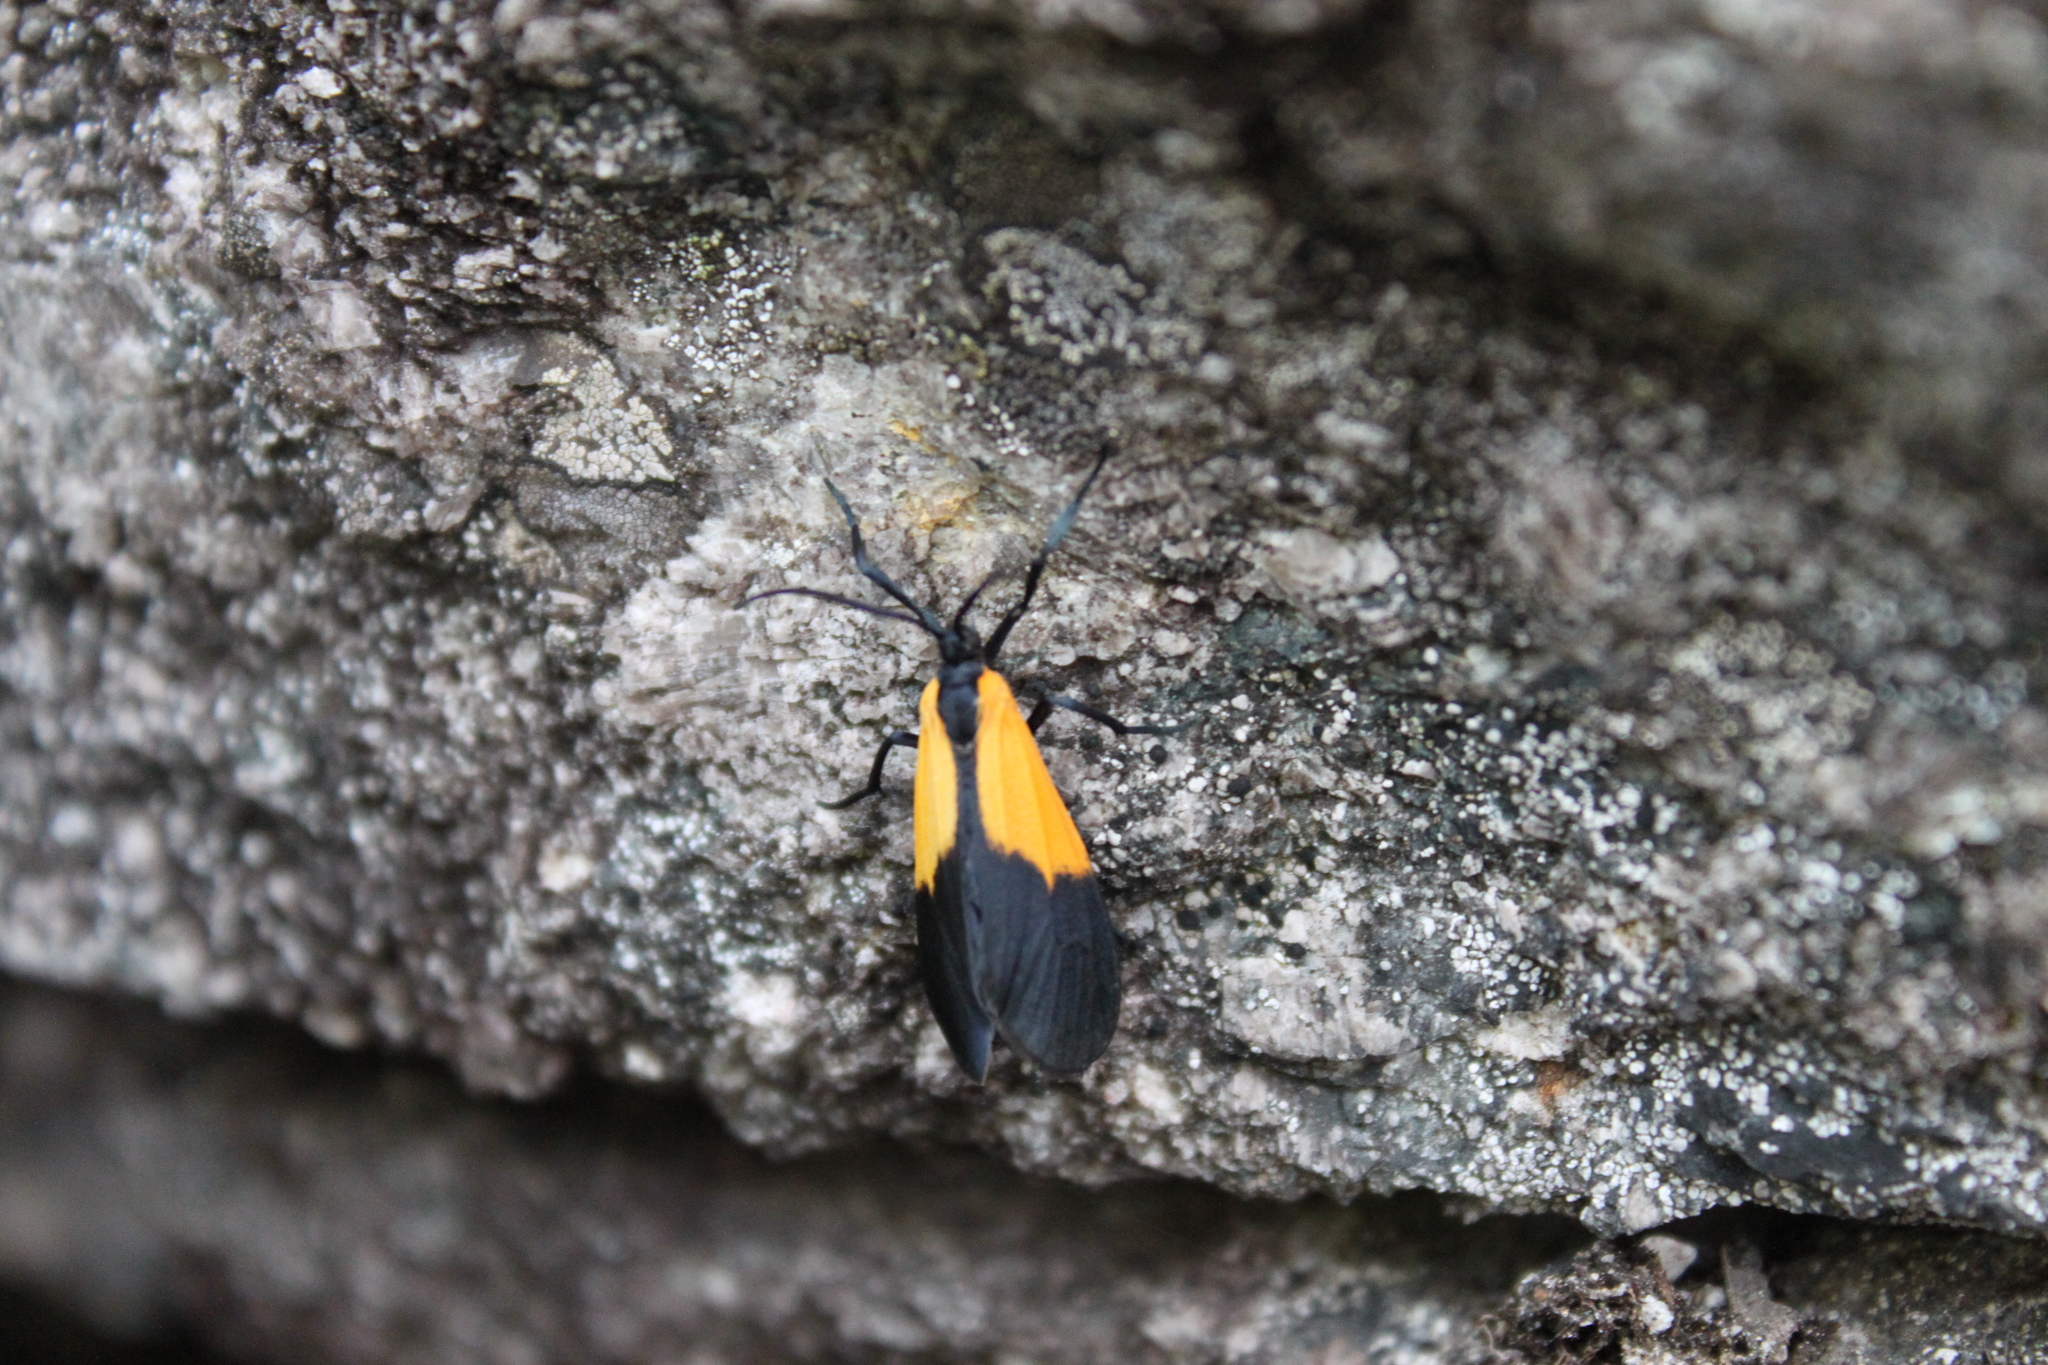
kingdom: Animalia
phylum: Arthropoda
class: Insecta
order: Lepidoptera
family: Erebidae
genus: Lycomorpha
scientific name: Lycomorpha pholus
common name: Black-and-yellow lichen moth
